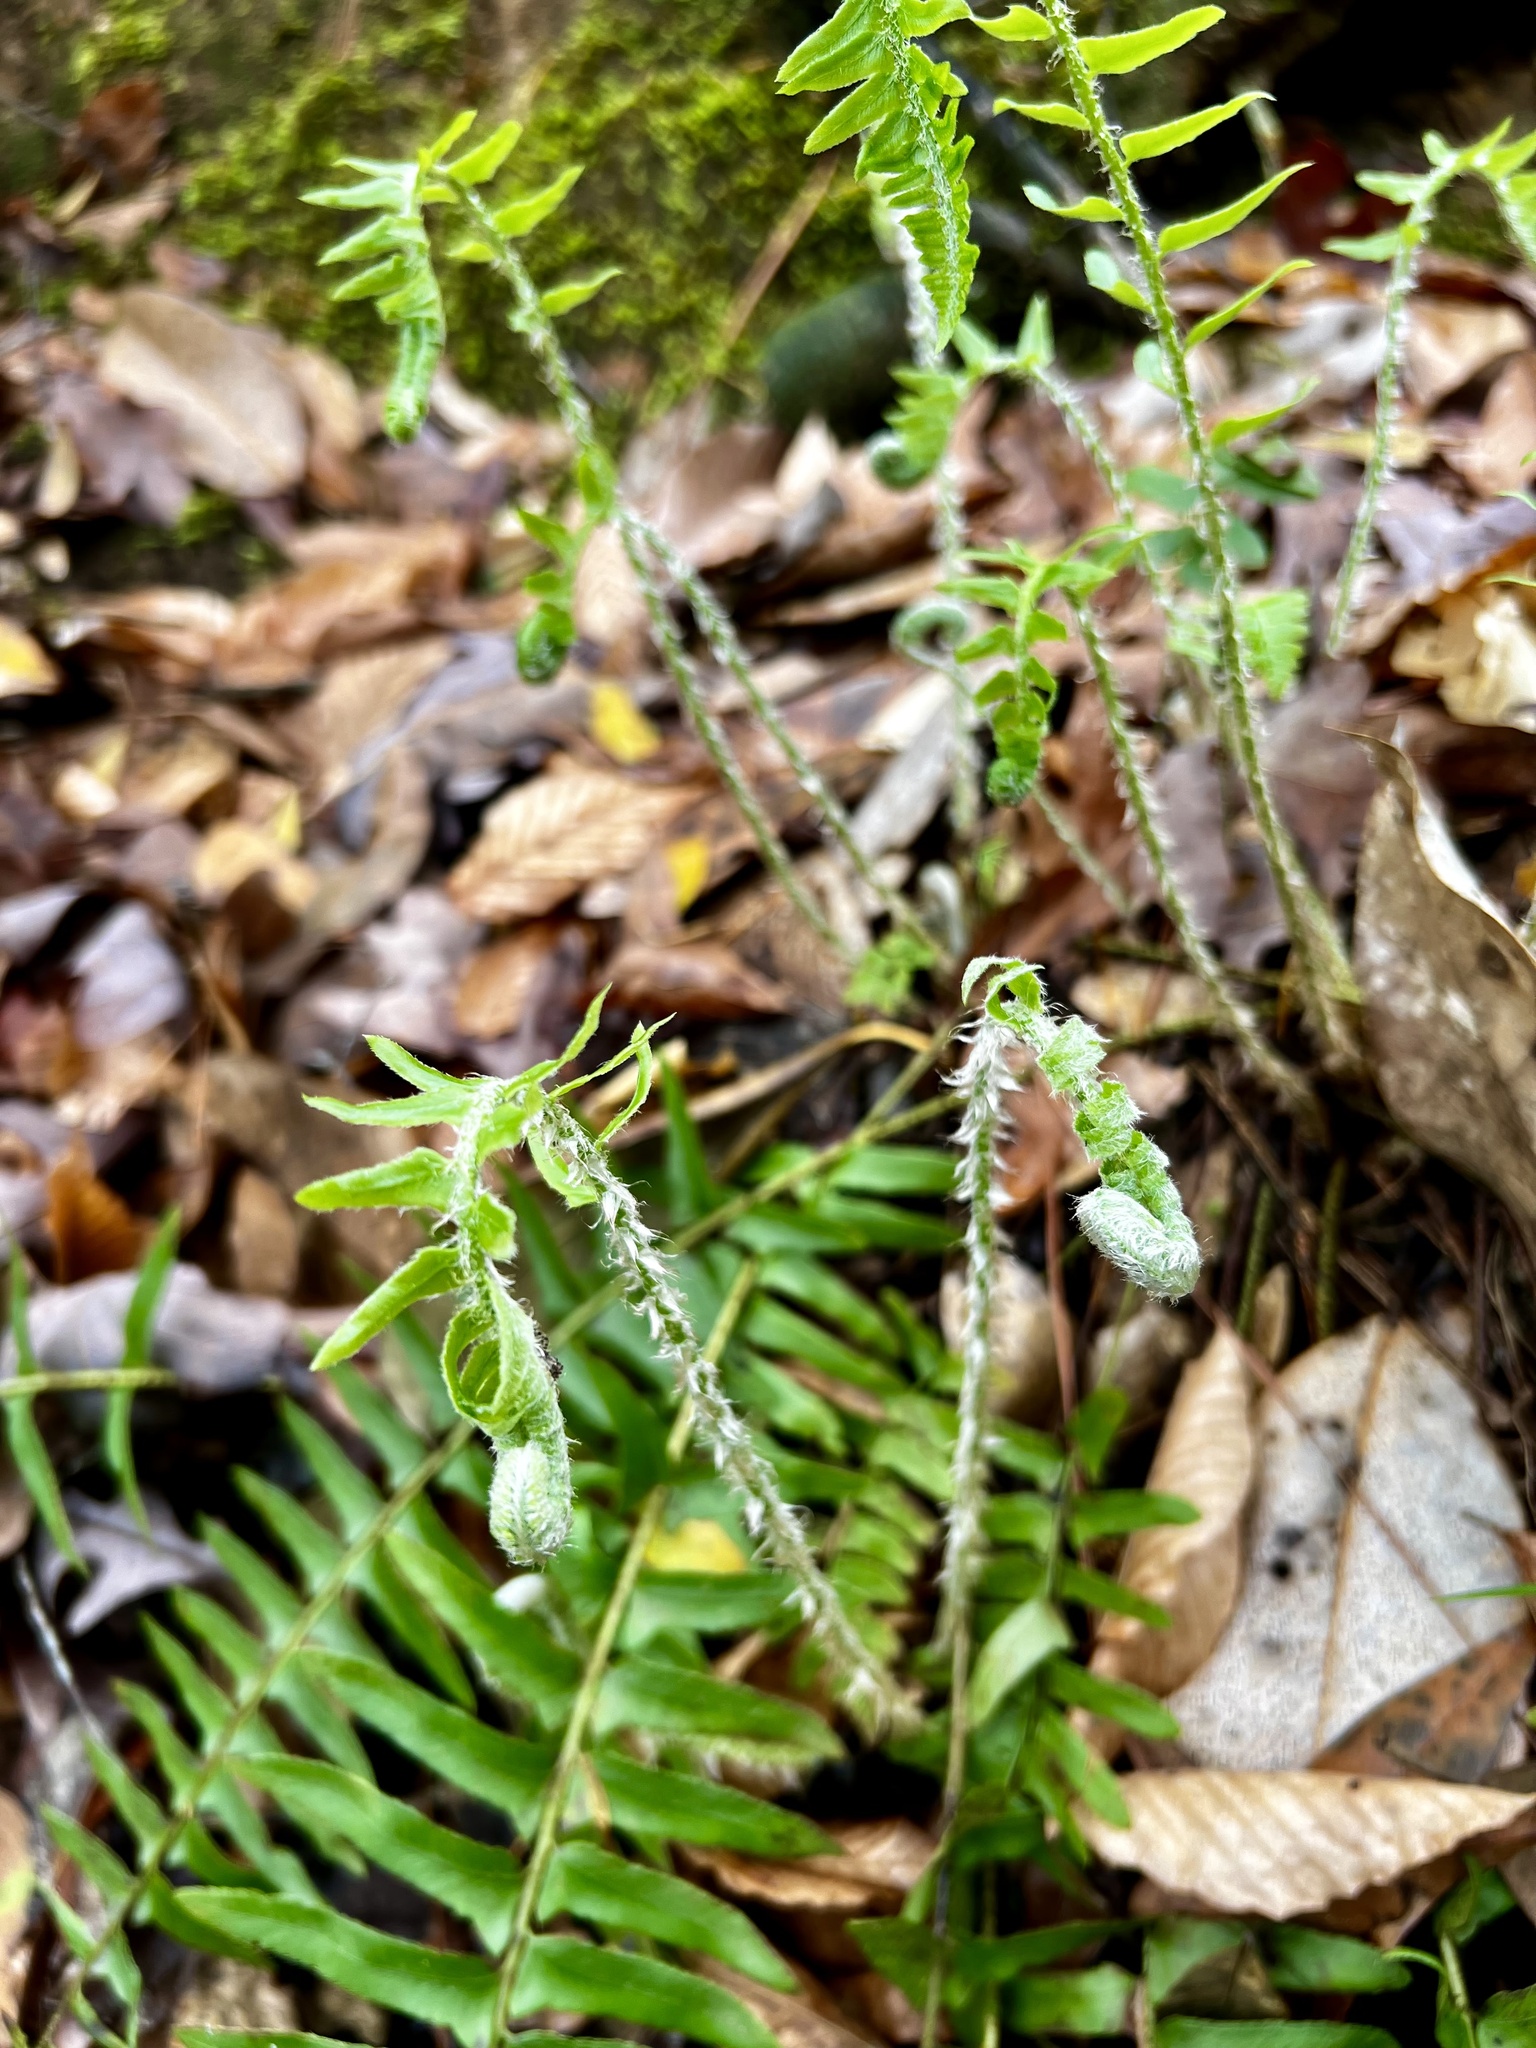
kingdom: Plantae
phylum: Tracheophyta
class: Polypodiopsida
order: Polypodiales
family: Dryopteridaceae
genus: Polystichum
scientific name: Polystichum acrostichoides
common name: Christmas fern
